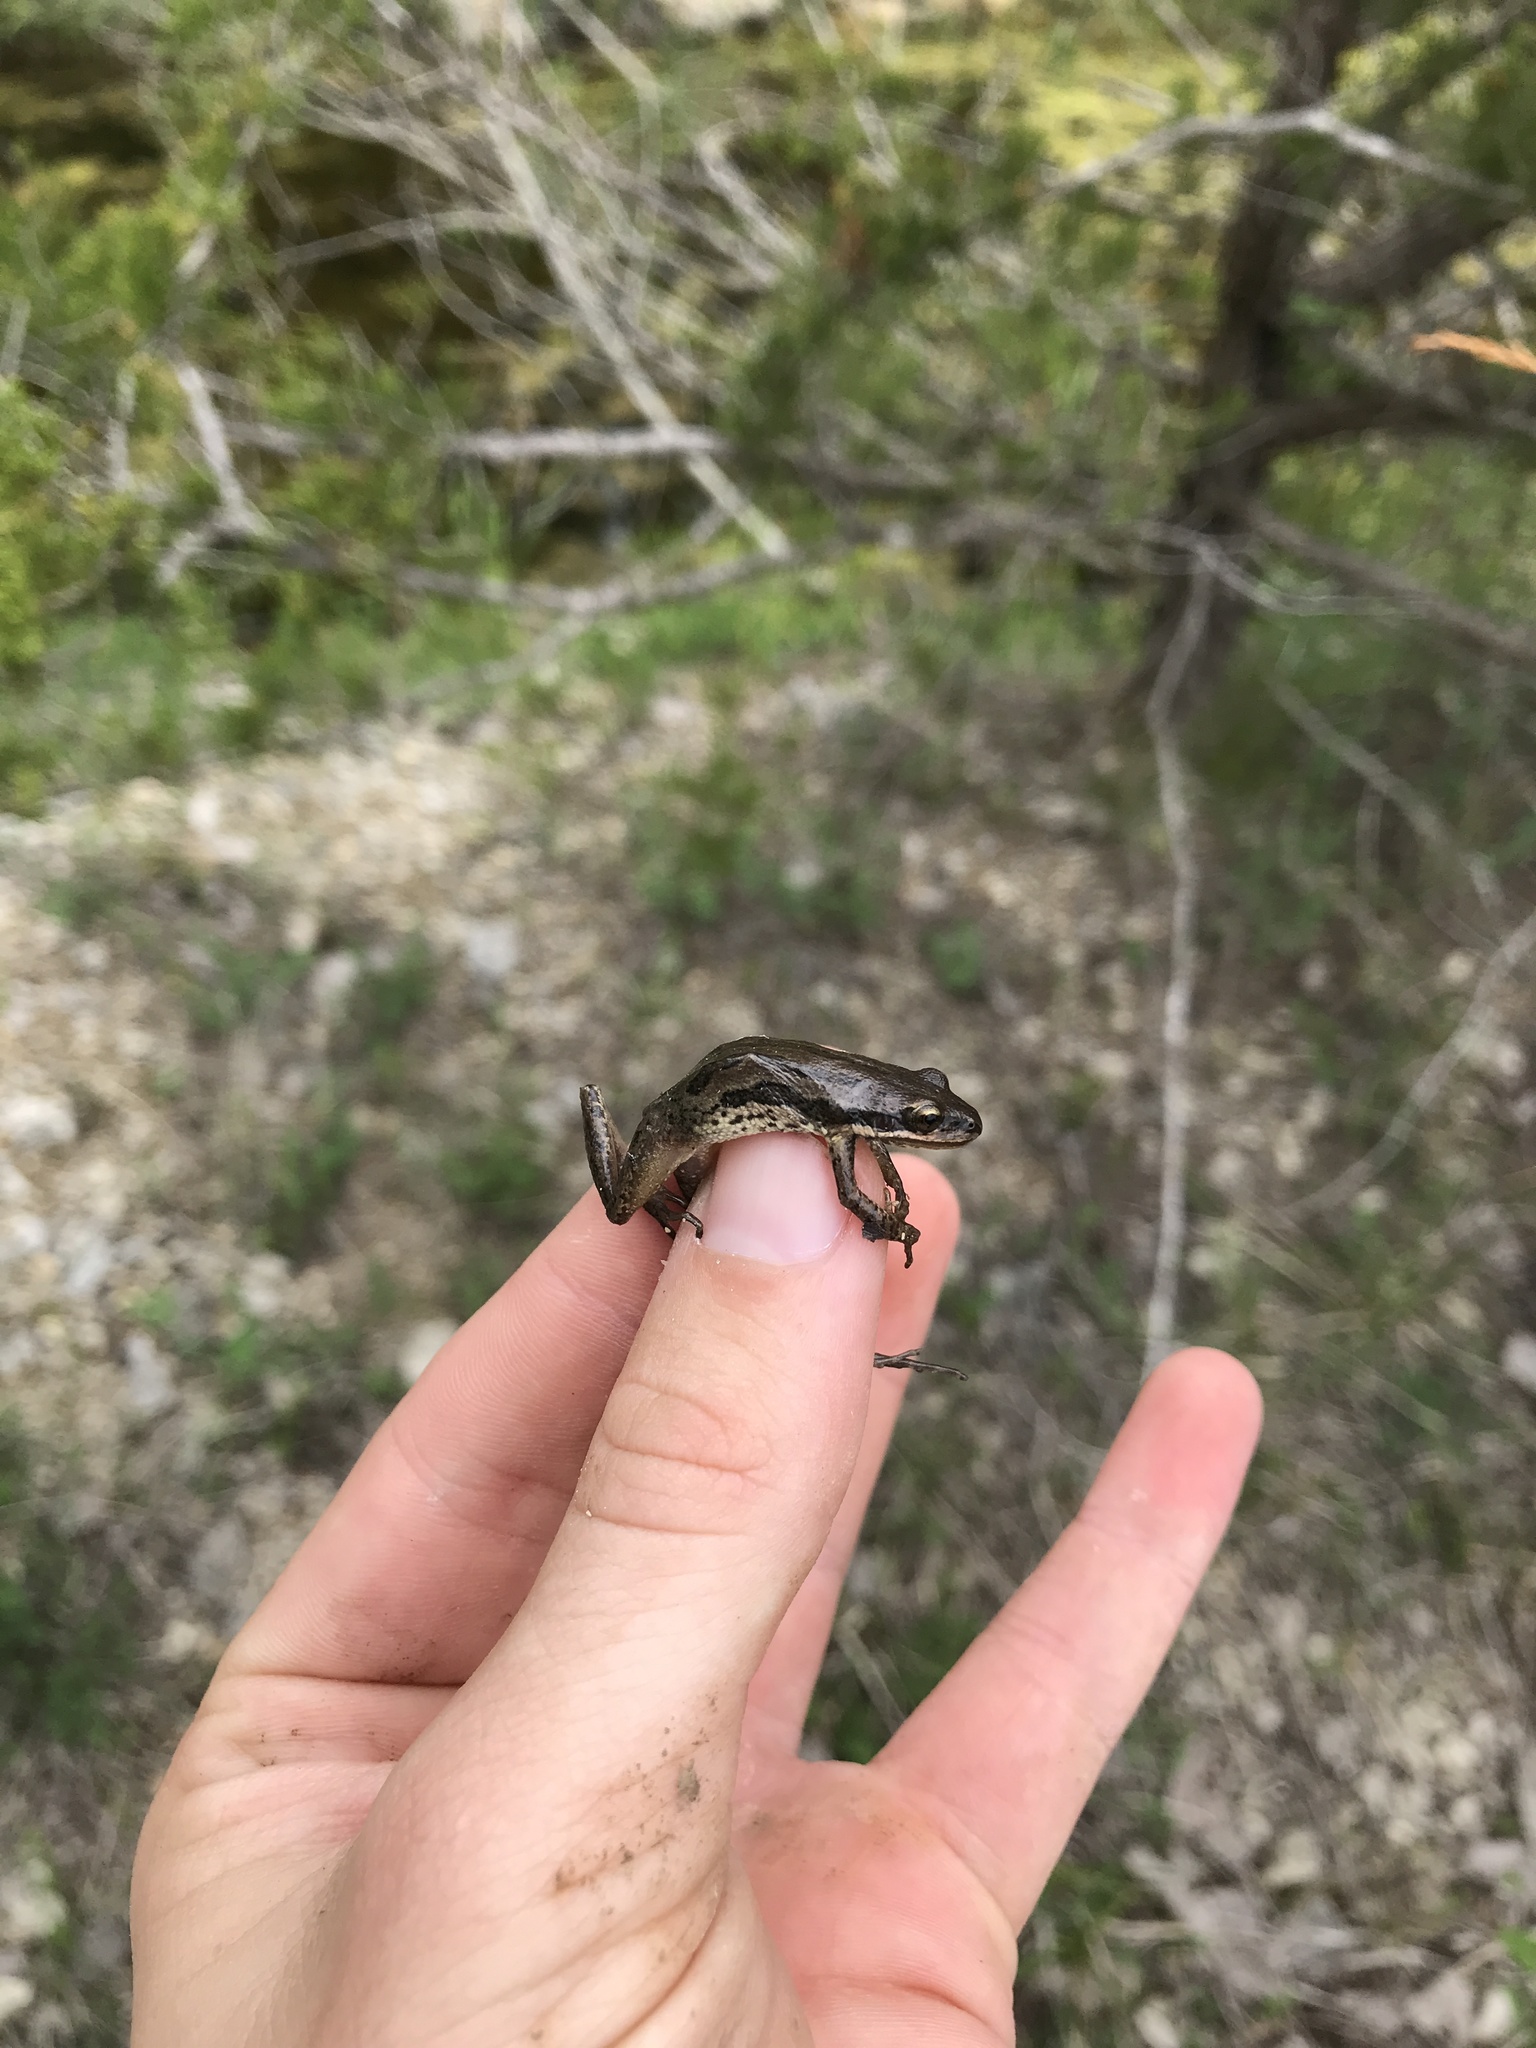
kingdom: Animalia
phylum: Chordata
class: Amphibia
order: Anura
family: Hylidae
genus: Pseudacris
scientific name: Pseudacris maculata
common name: Boreal chorus frog
